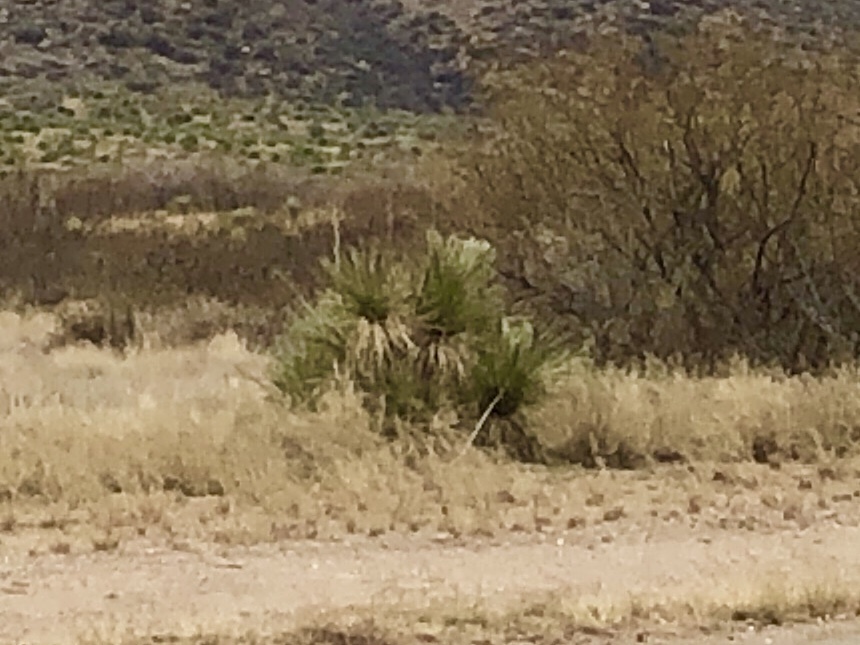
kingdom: Plantae
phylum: Tracheophyta
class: Liliopsida
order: Asparagales
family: Asparagaceae
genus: Yucca
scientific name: Yucca elata
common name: Palmella
